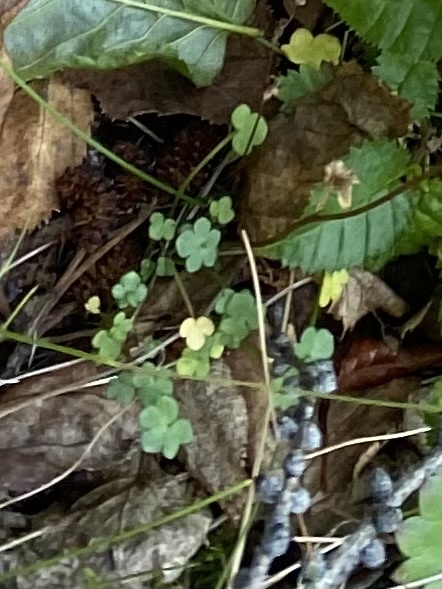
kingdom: Plantae
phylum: Tracheophyta
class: Magnoliopsida
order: Saxifragales
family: Saxifragaceae
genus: Saxifraga
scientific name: Saxifraga cernua
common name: Drooping saxifrage
